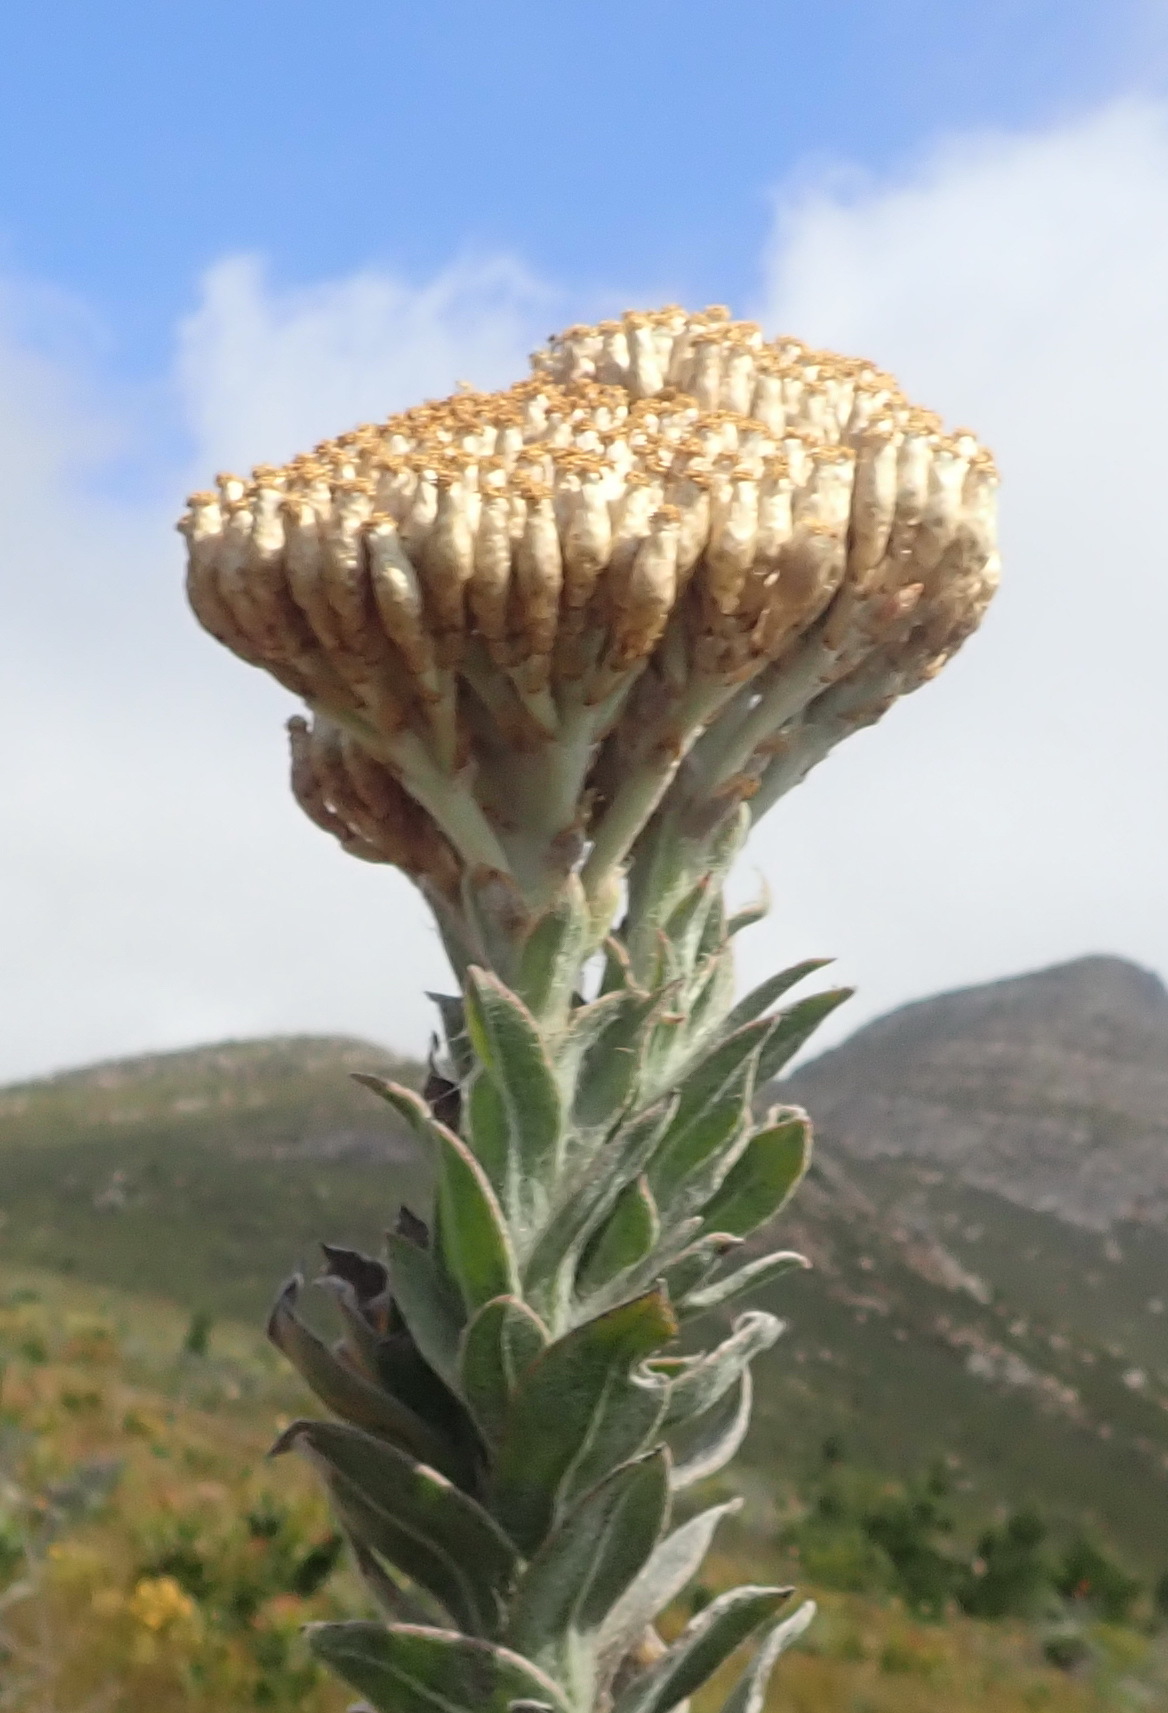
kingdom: Plantae
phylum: Tracheophyta
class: Magnoliopsida
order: Asterales
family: Asteraceae
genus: Syncarpha
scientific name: Syncarpha milleflora
